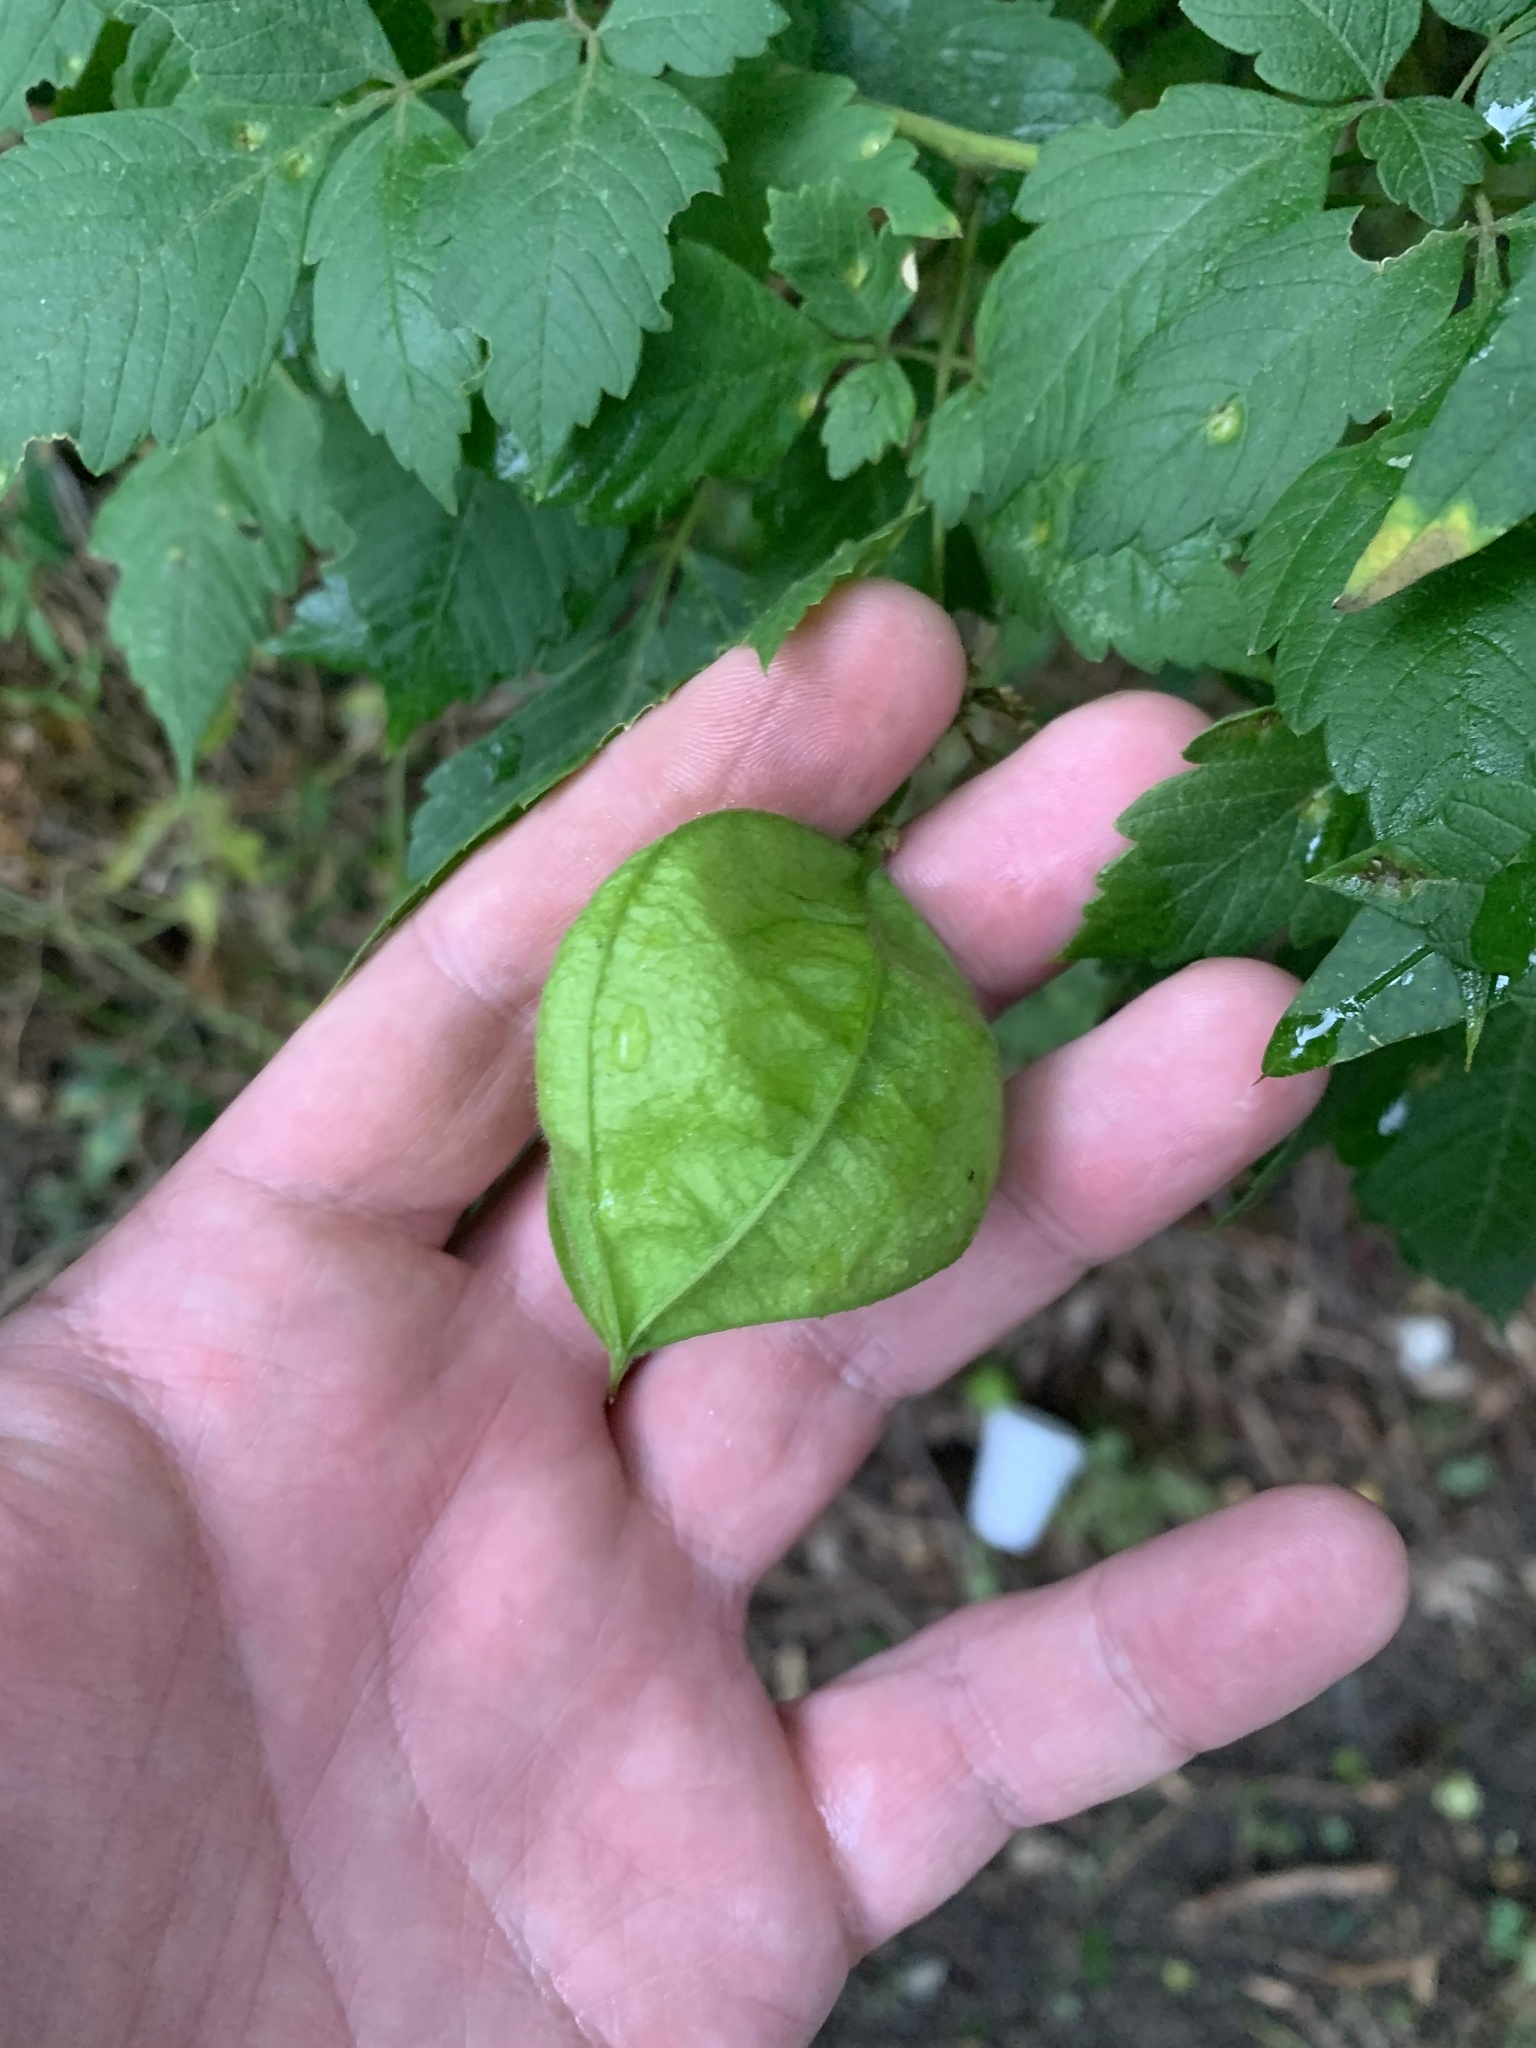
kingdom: Plantae
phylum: Tracheophyta
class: Magnoliopsida
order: Sapindales
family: Sapindaceae
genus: Cardiospermum
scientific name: Cardiospermum grandiflorum
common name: Balloon vine
